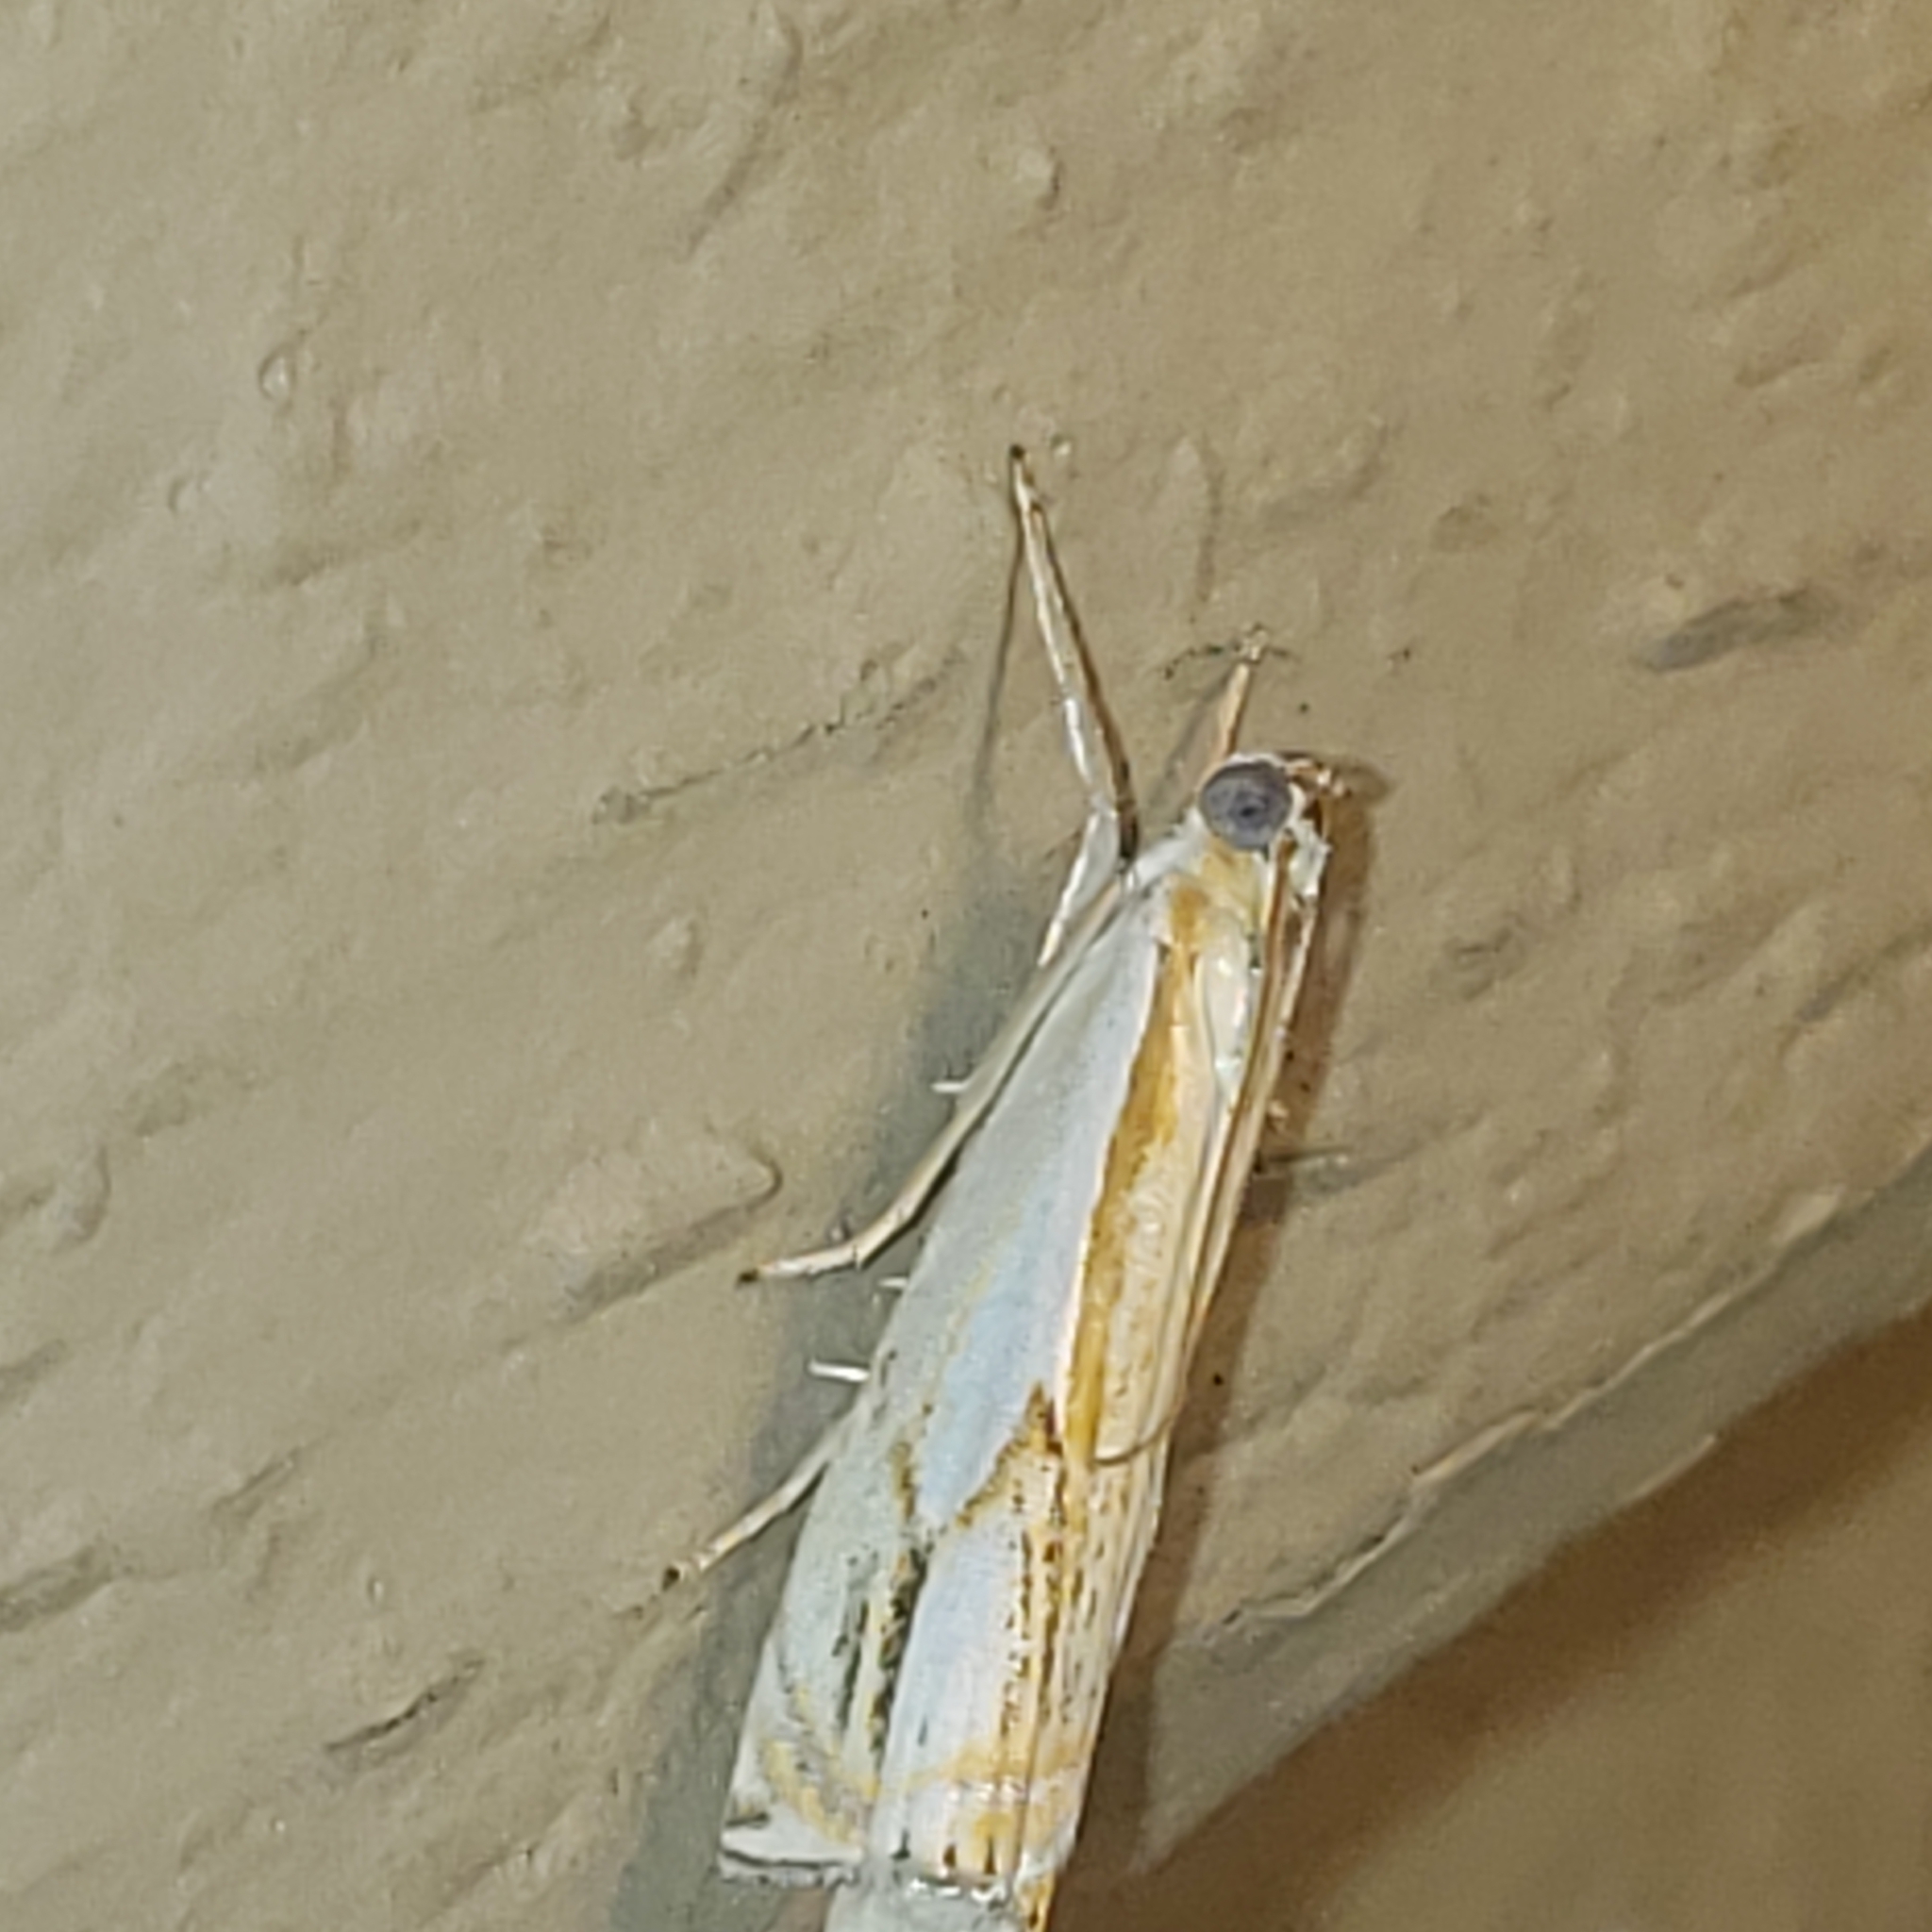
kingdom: Animalia
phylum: Arthropoda
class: Insecta
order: Lepidoptera
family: Crambidae
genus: Crambus
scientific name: Crambus agitatellus
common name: Double-banded grass-veneer
